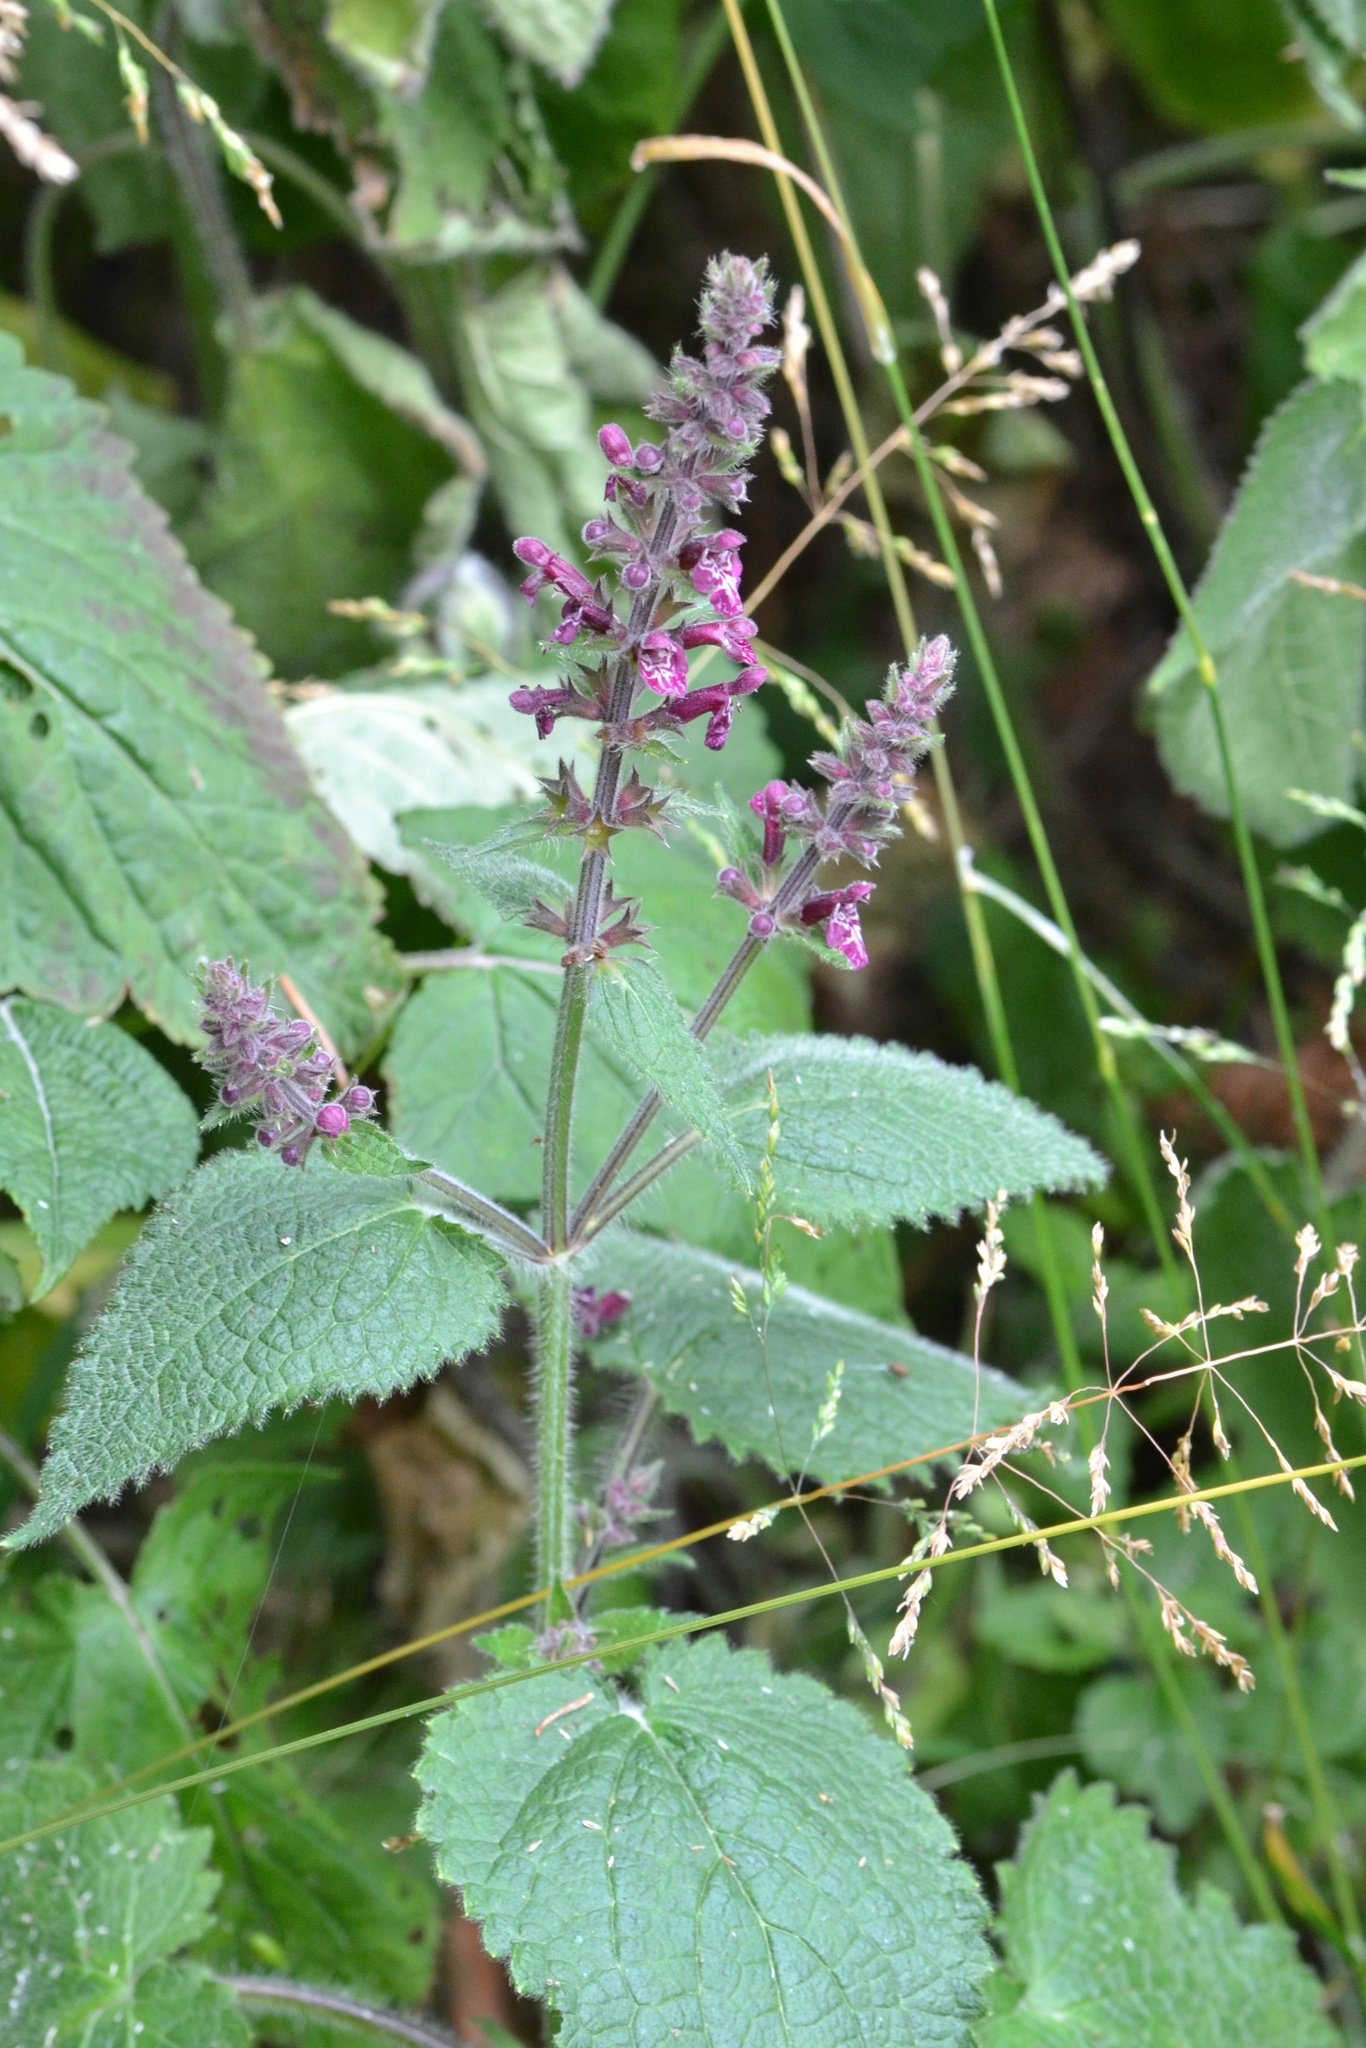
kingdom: Plantae
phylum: Tracheophyta
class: Magnoliopsida
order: Lamiales
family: Lamiaceae
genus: Stachys
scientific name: Stachys sylvatica
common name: Hedge woundwort
